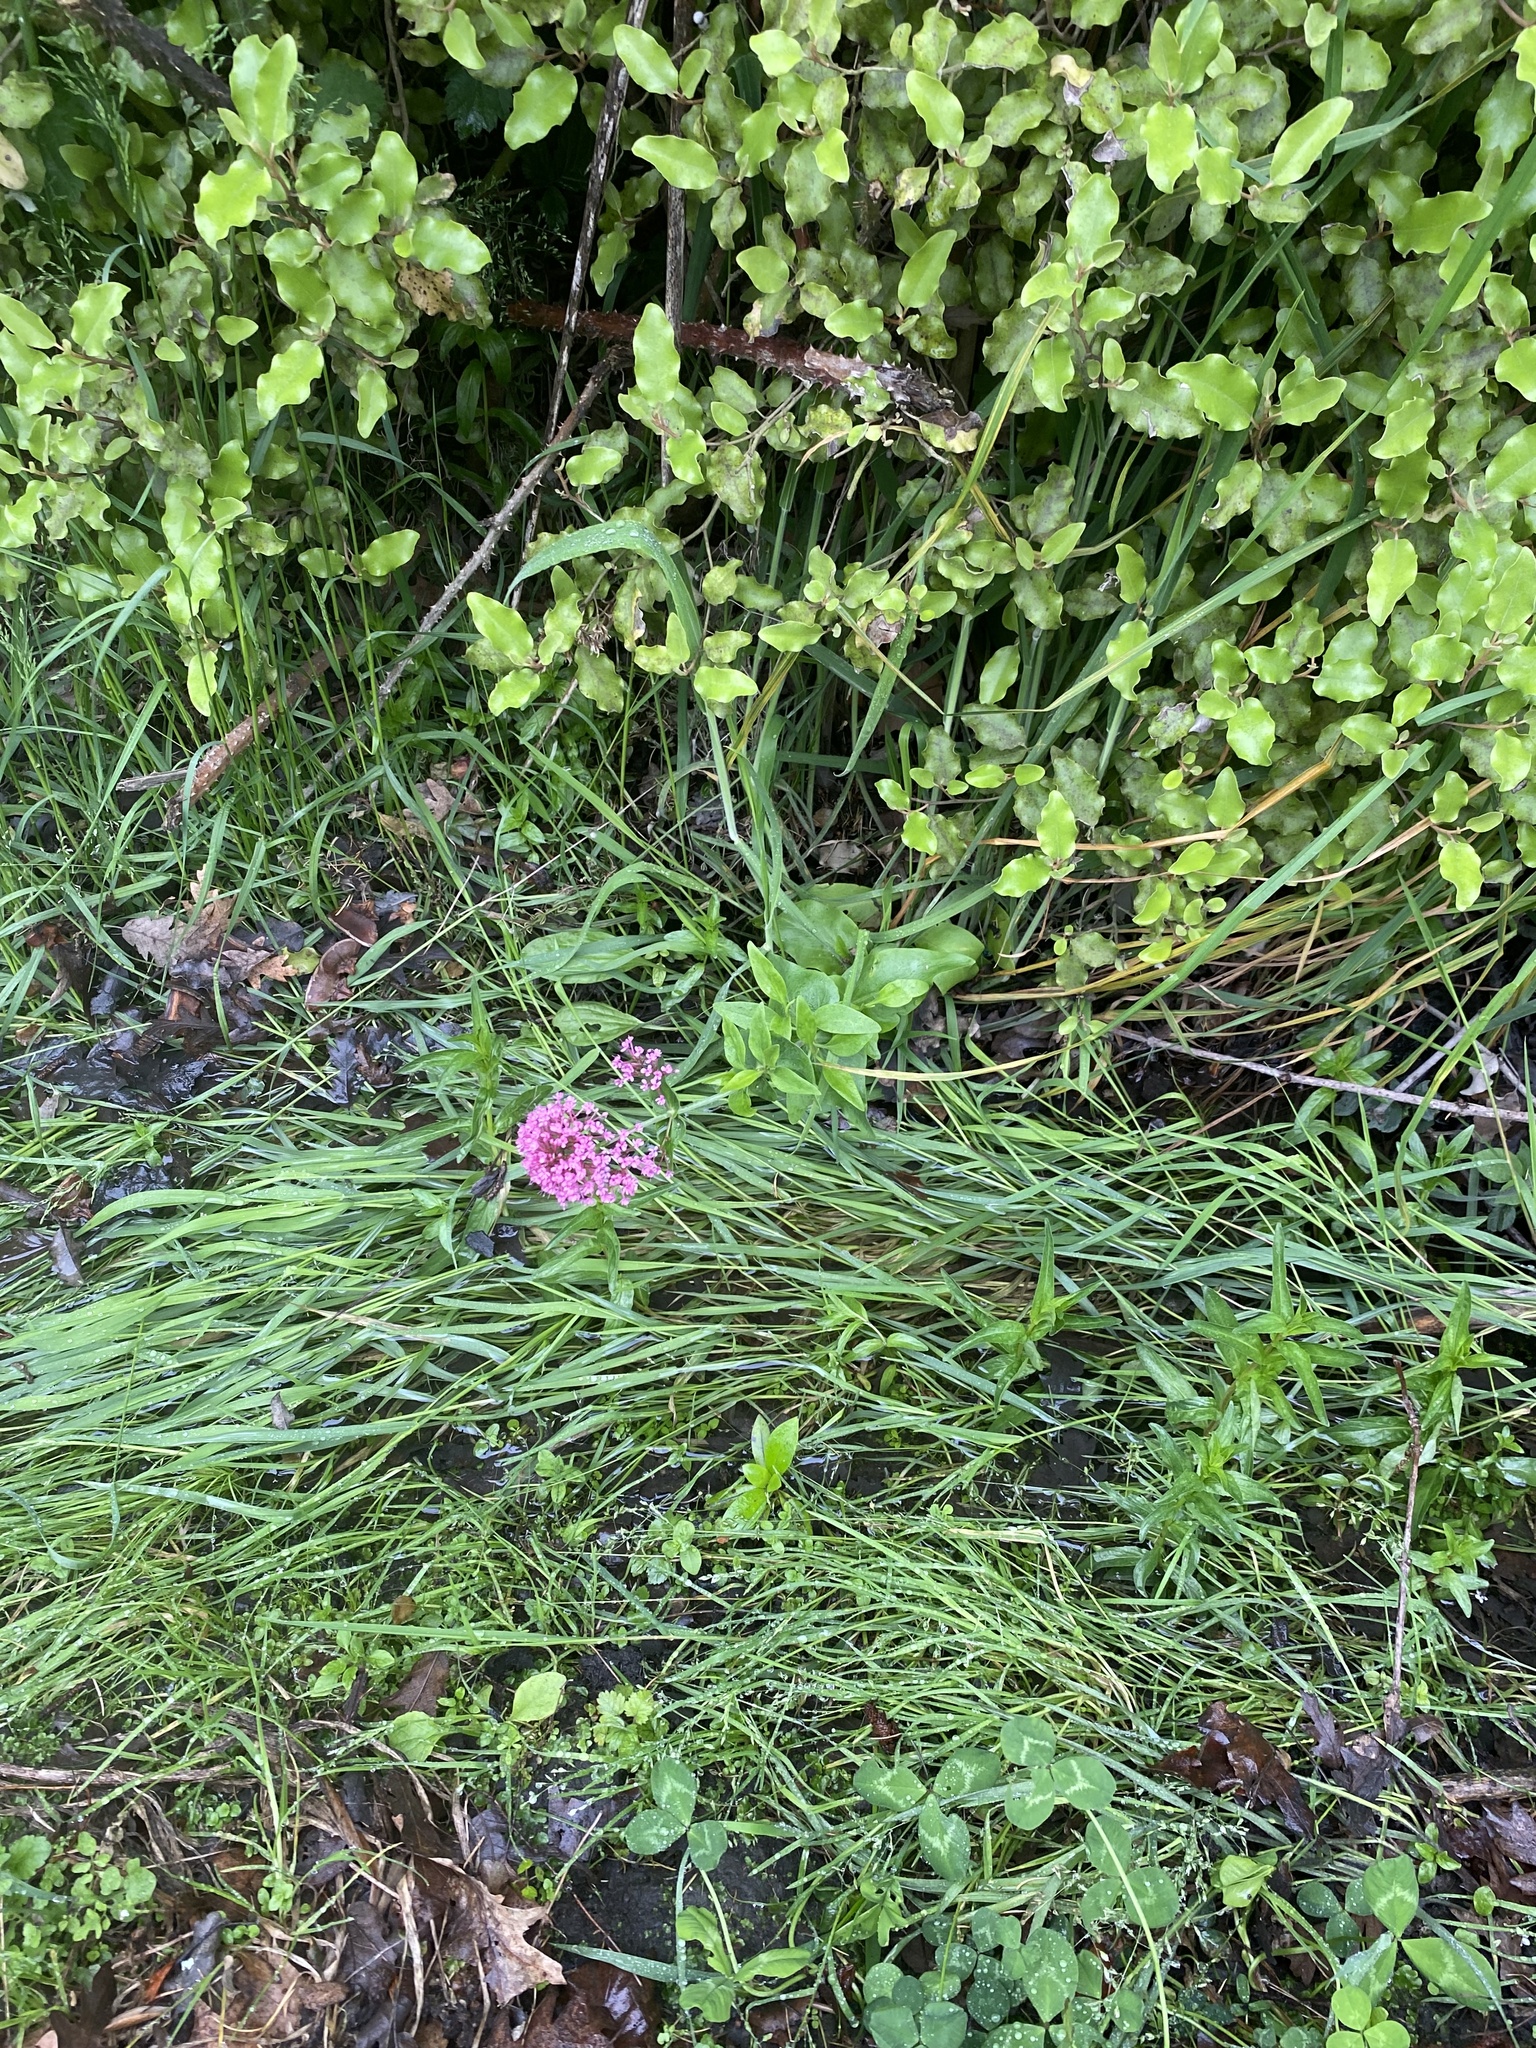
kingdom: Plantae
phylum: Tracheophyta
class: Magnoliopsida
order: Dipsacales
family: Caprifoliaceae
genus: Centranthus
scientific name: Centranthus ruber
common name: Red valerian
